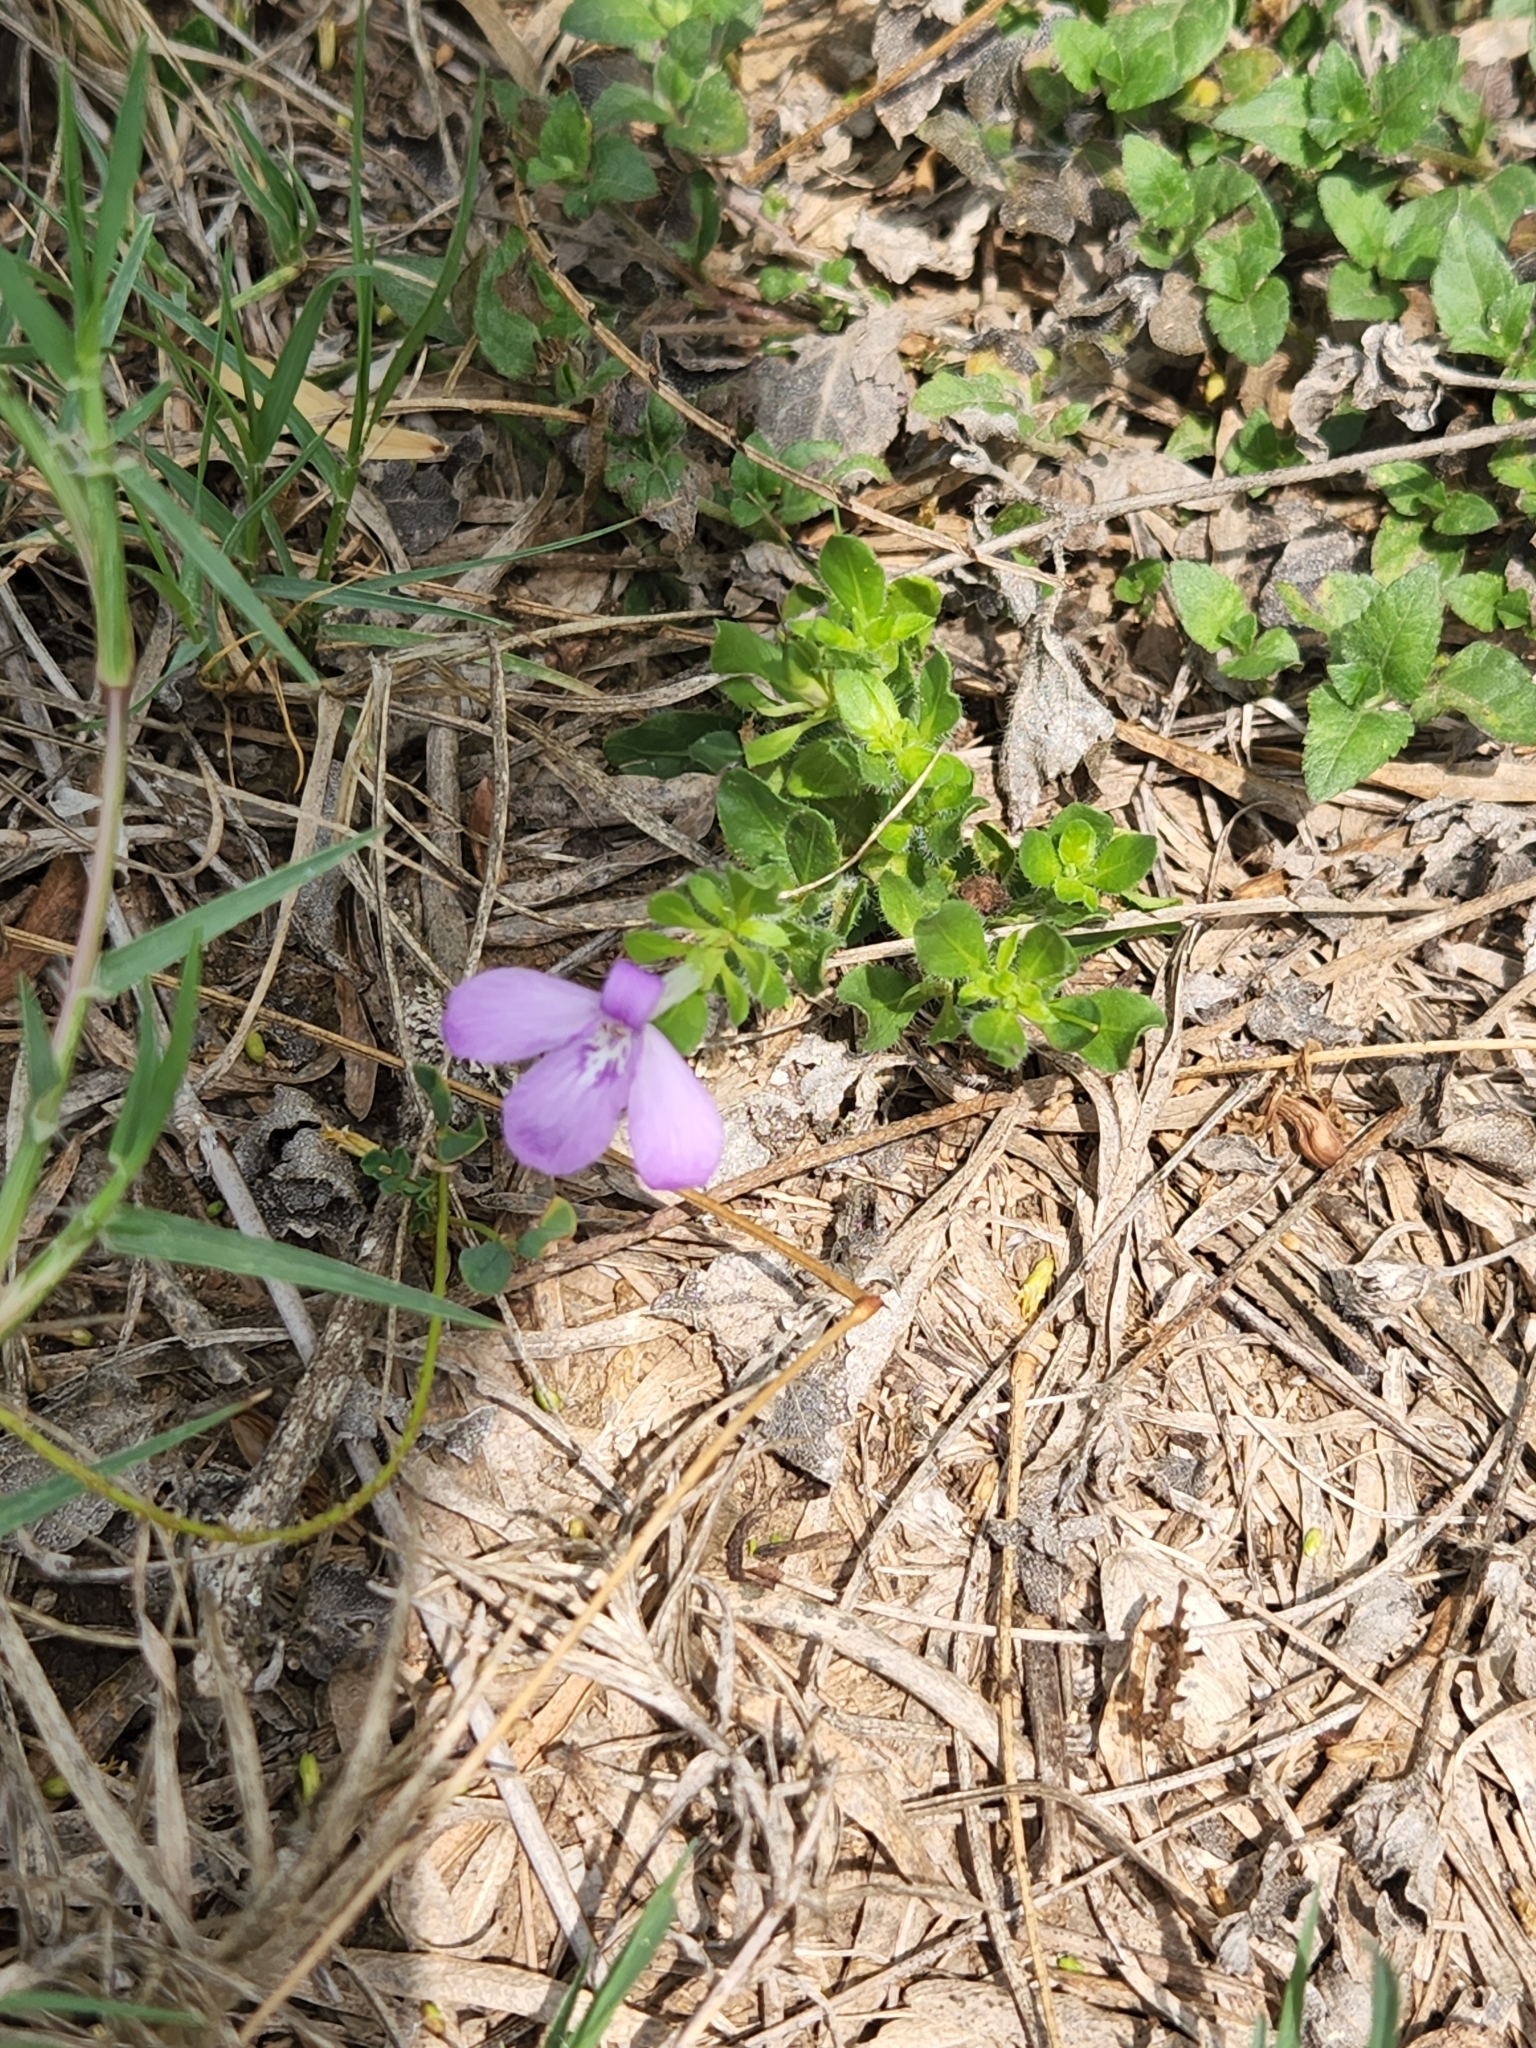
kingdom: Plantae
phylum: Tracheophyta
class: Magnoliopsida
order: Lamiales
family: Acanthaceae
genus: Justicia
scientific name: Justicia pilosella
